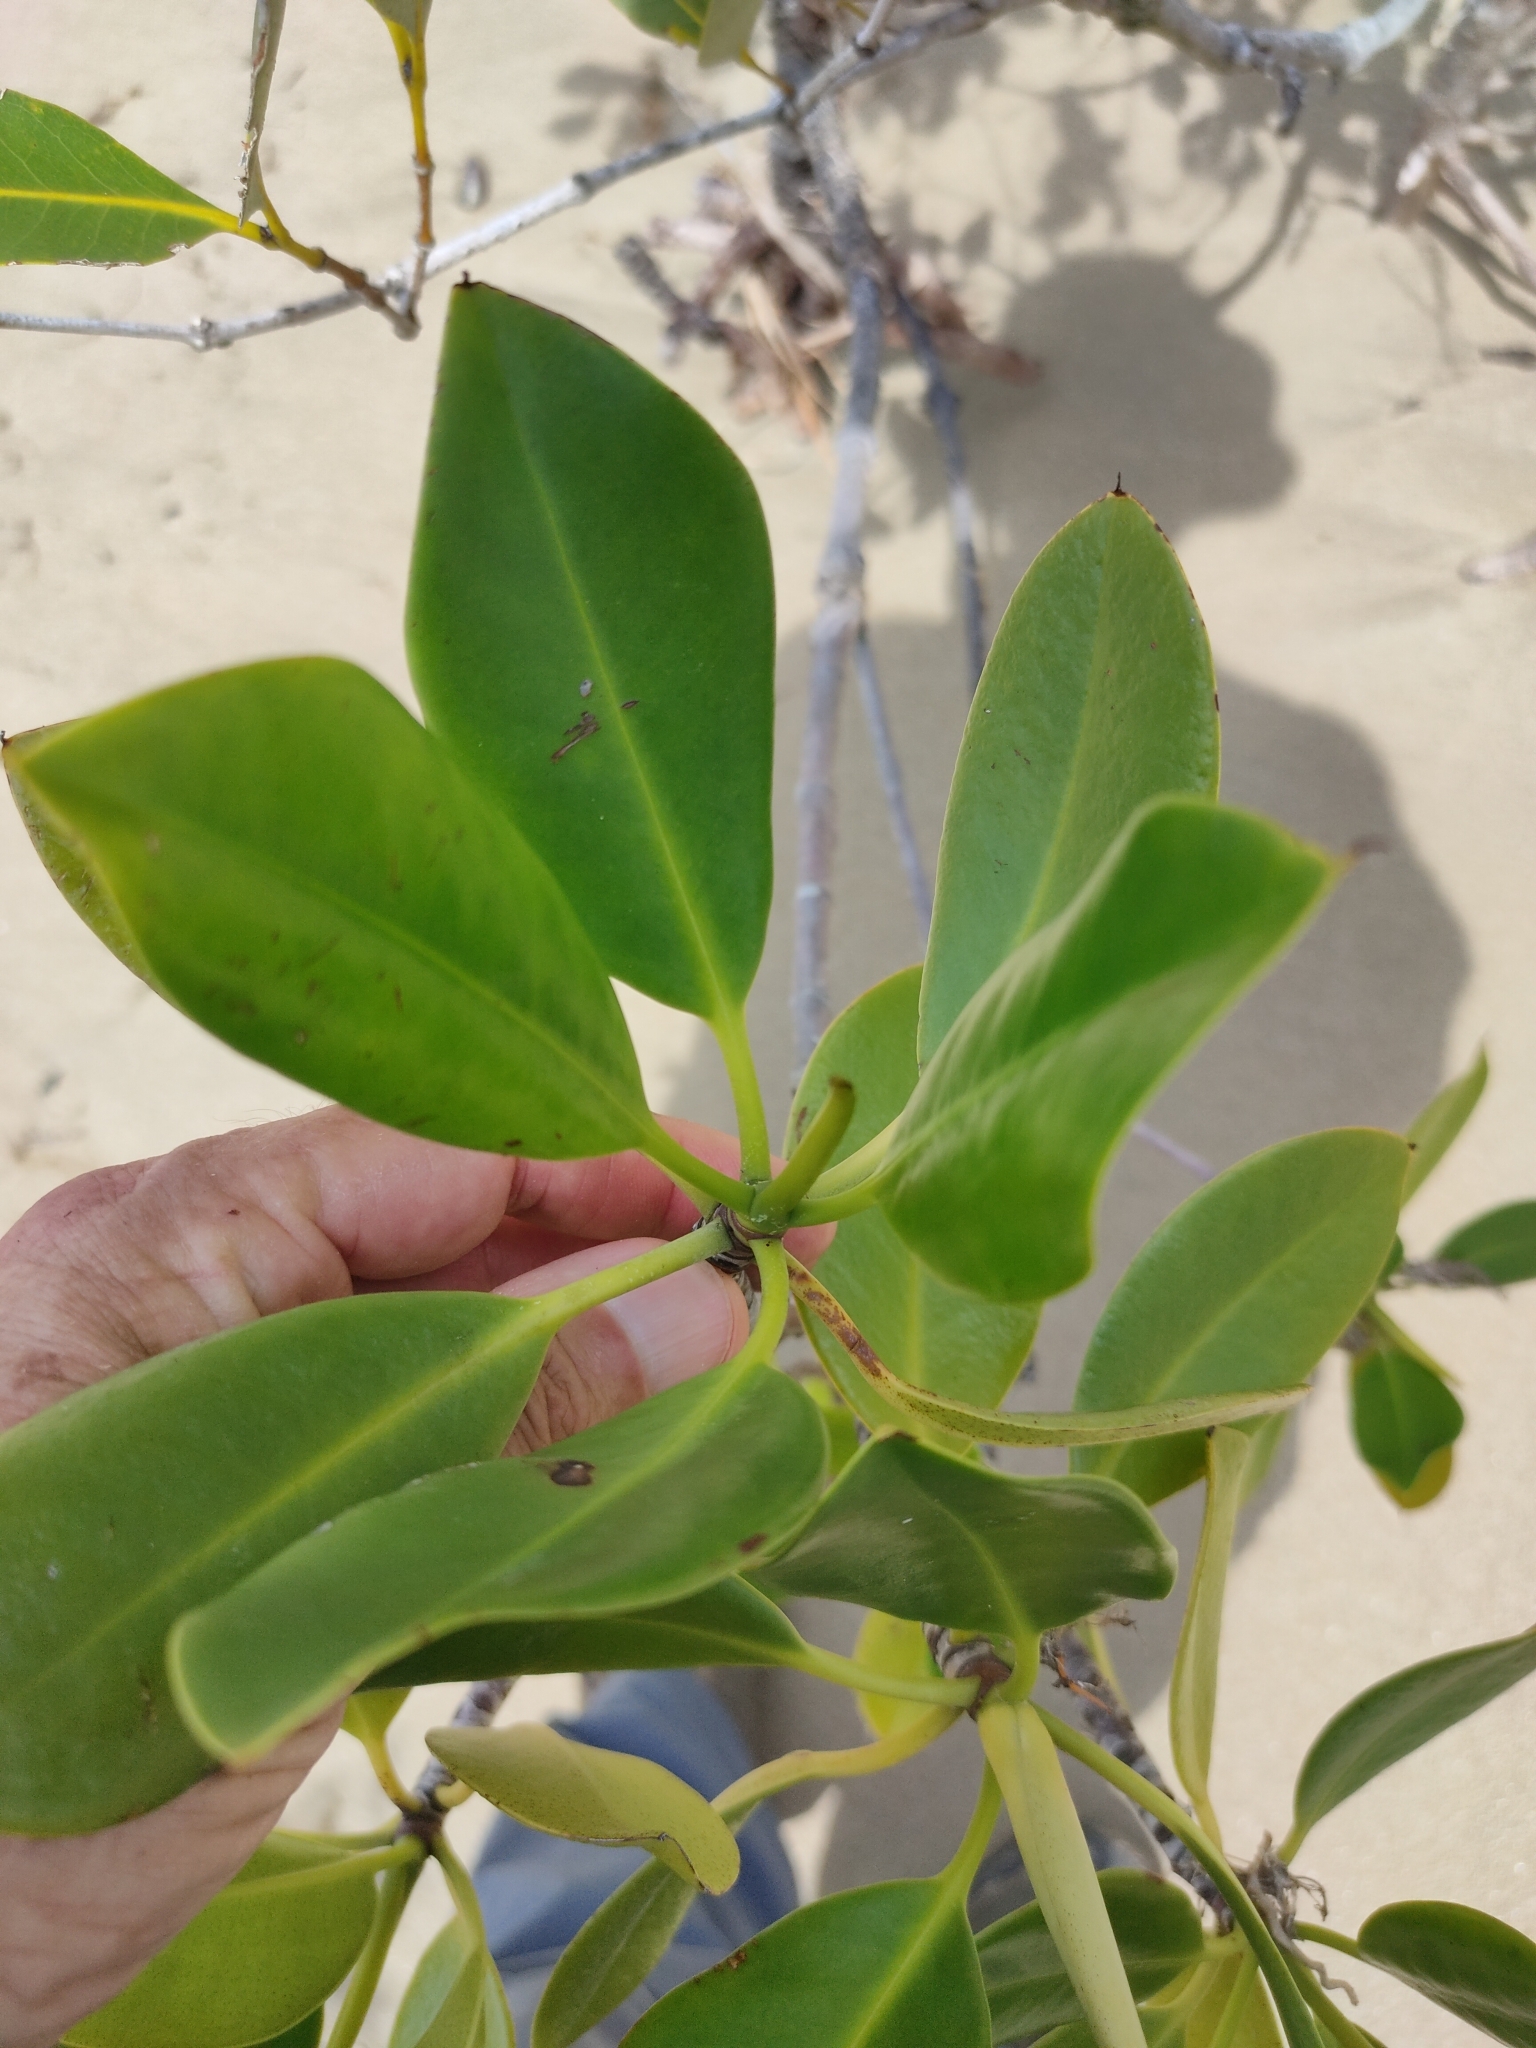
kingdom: Plantae
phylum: Tracheophyta
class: Magnoliopsida
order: Malpighiales
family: Rhizophoraceae
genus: Rhizophora
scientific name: Rhizophora stylosa
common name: Red mangrove
